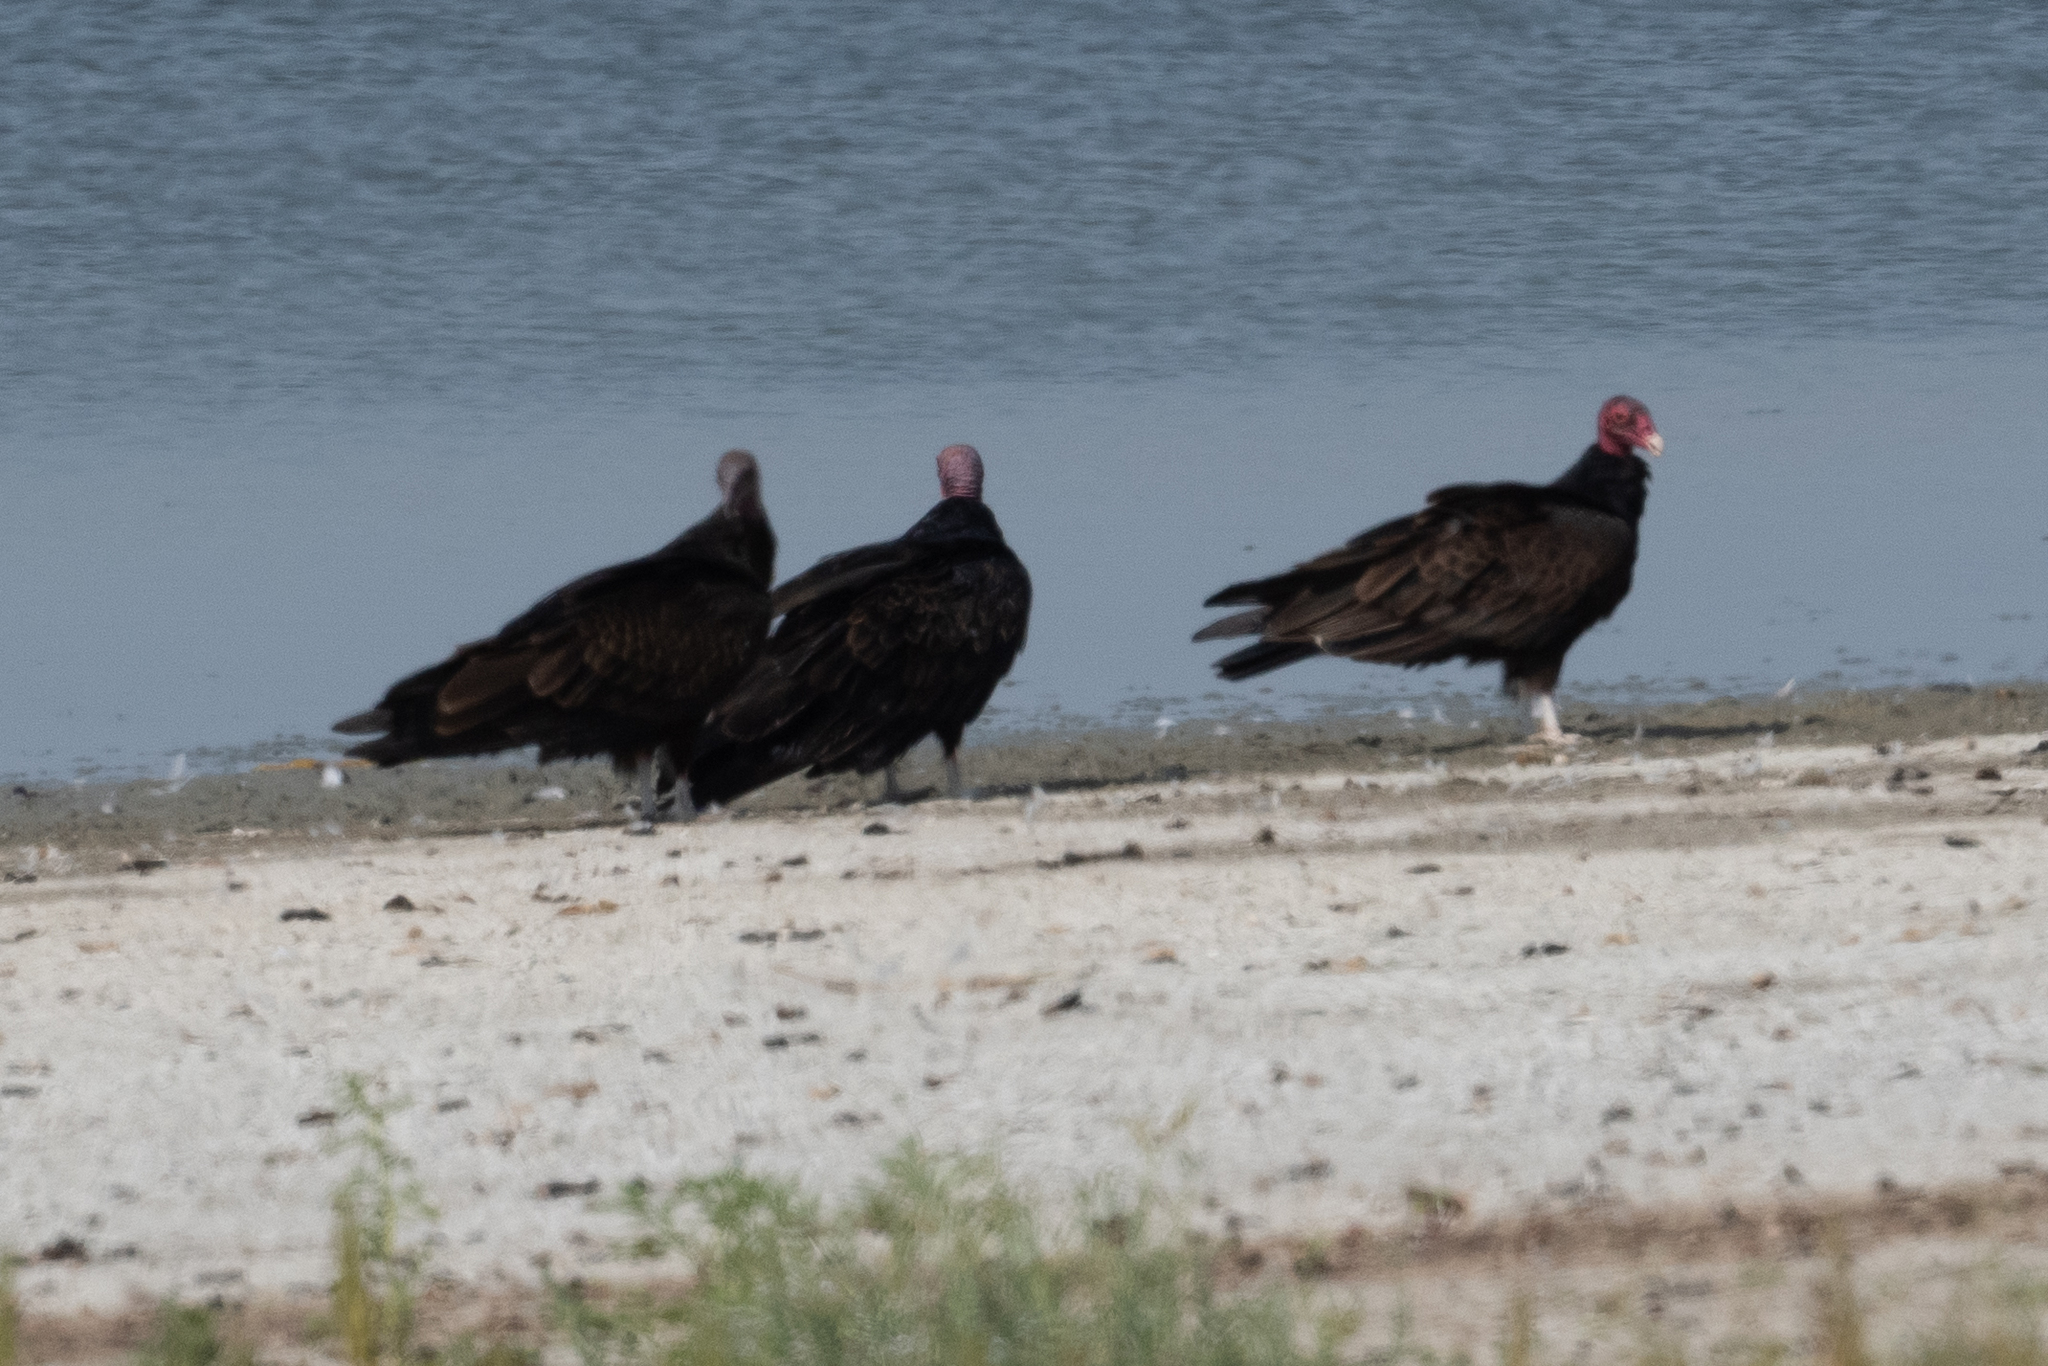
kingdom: Animalia
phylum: Chordata
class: Aves
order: Accipitriformes
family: Cathartidae
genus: Cathartes
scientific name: Cathartes aura
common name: Turkey vulture
